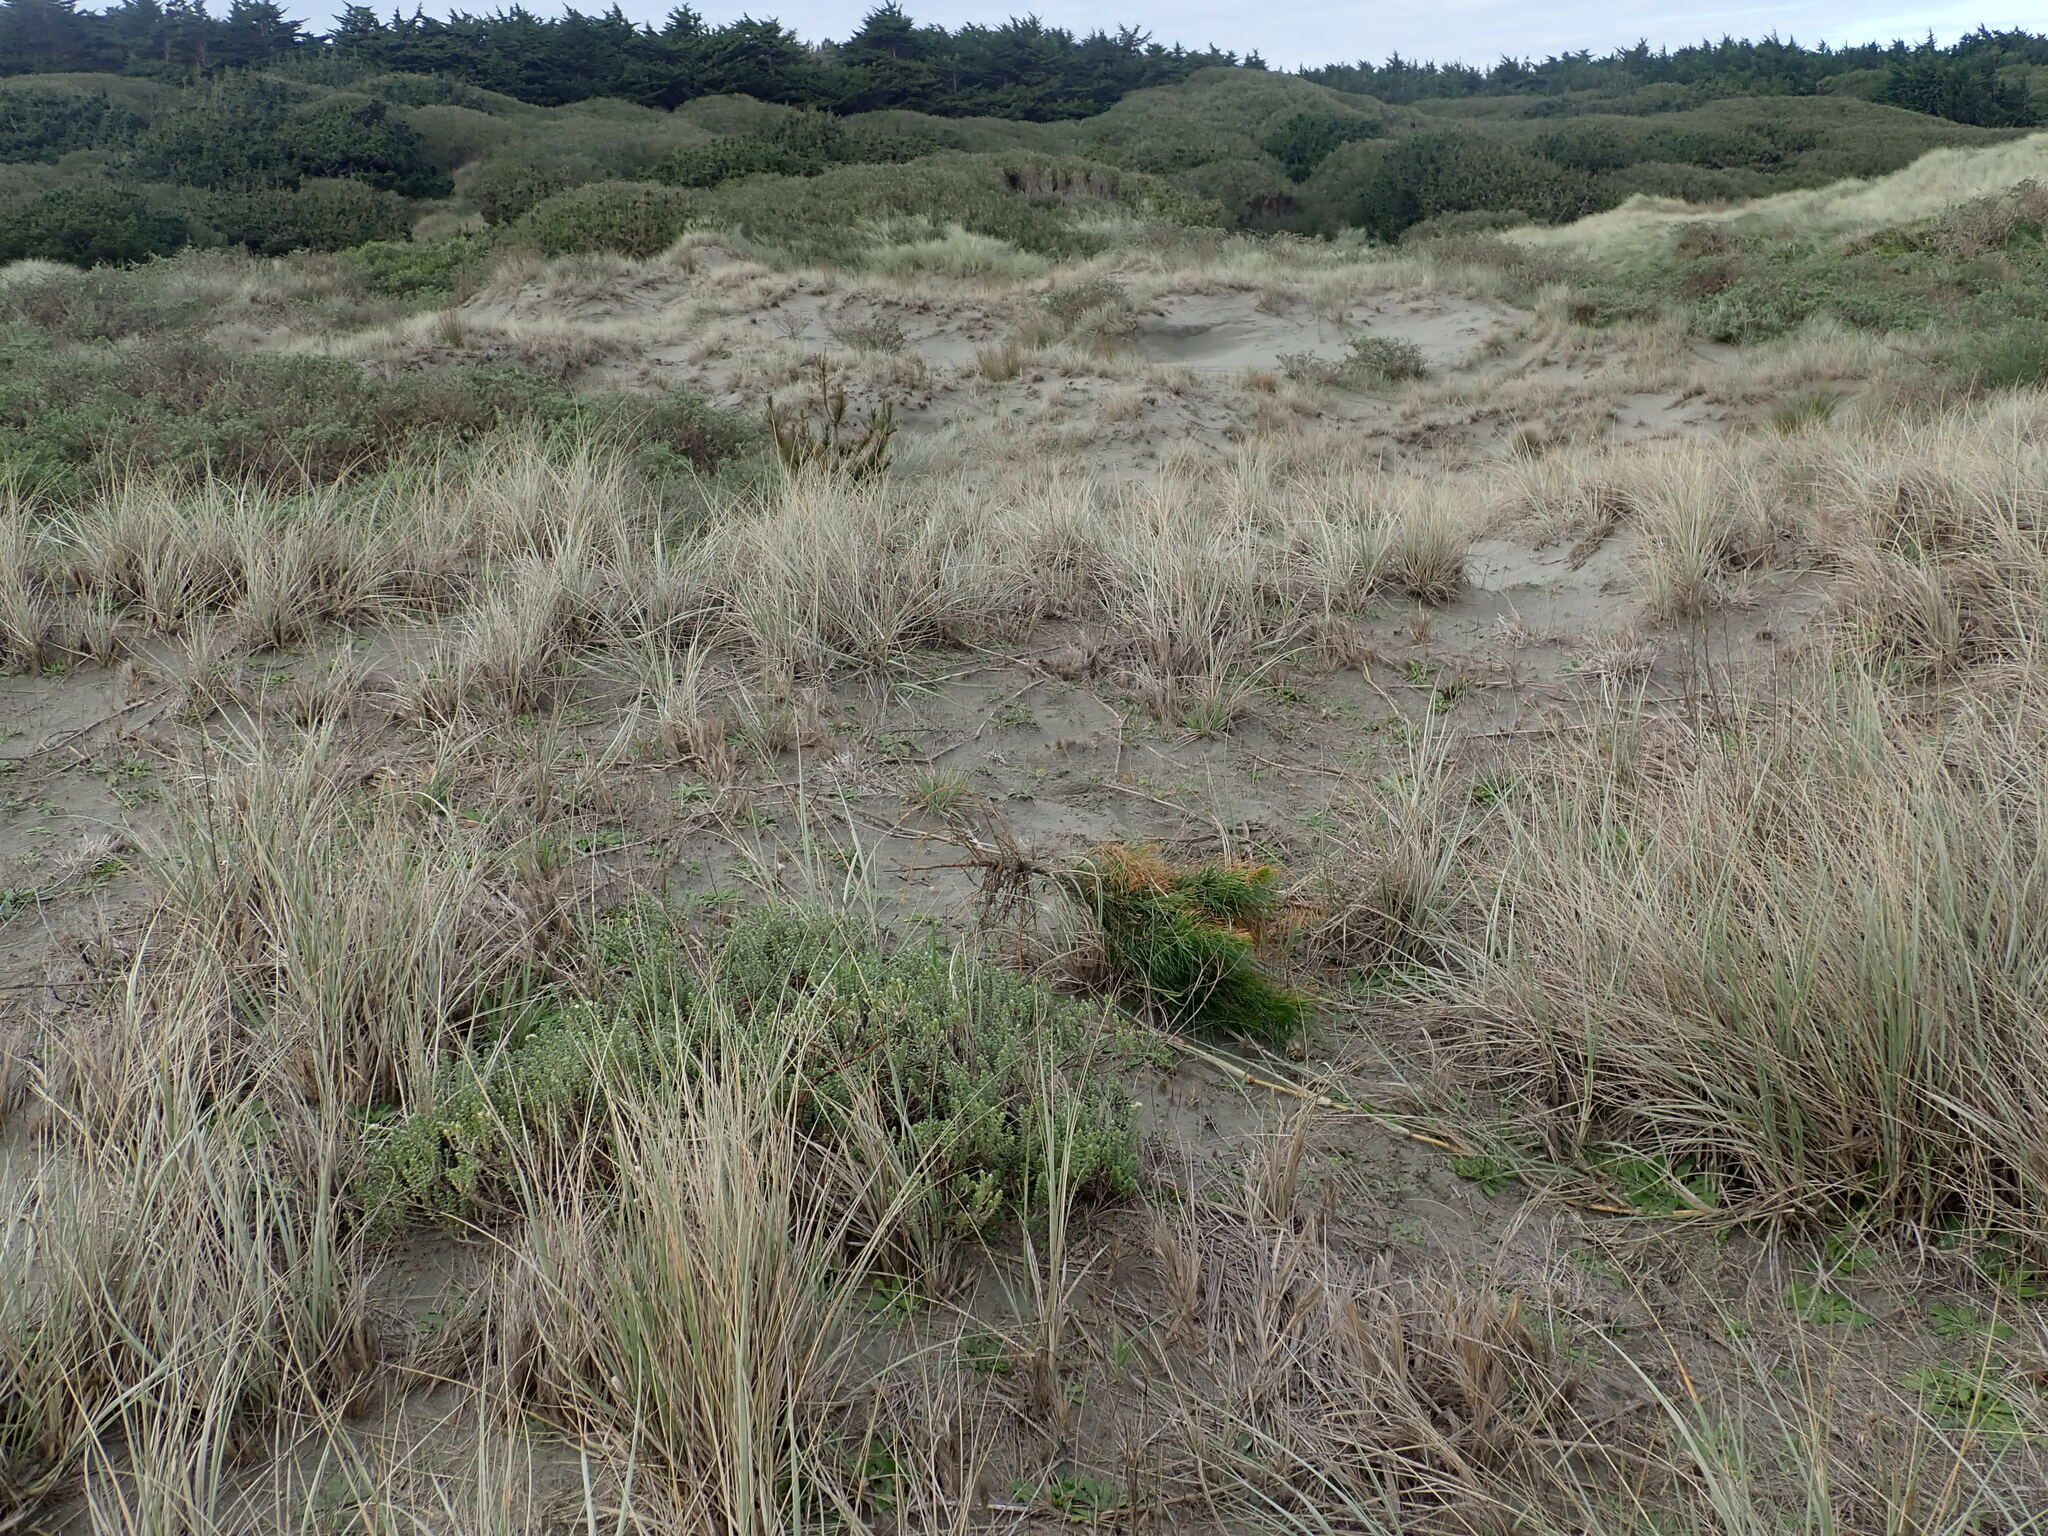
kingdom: Plantae
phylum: Tracheophyta
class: Magnoliopsida
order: Malvales
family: Thymelaeaceae
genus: Pimelea
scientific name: Pimelea villosa
